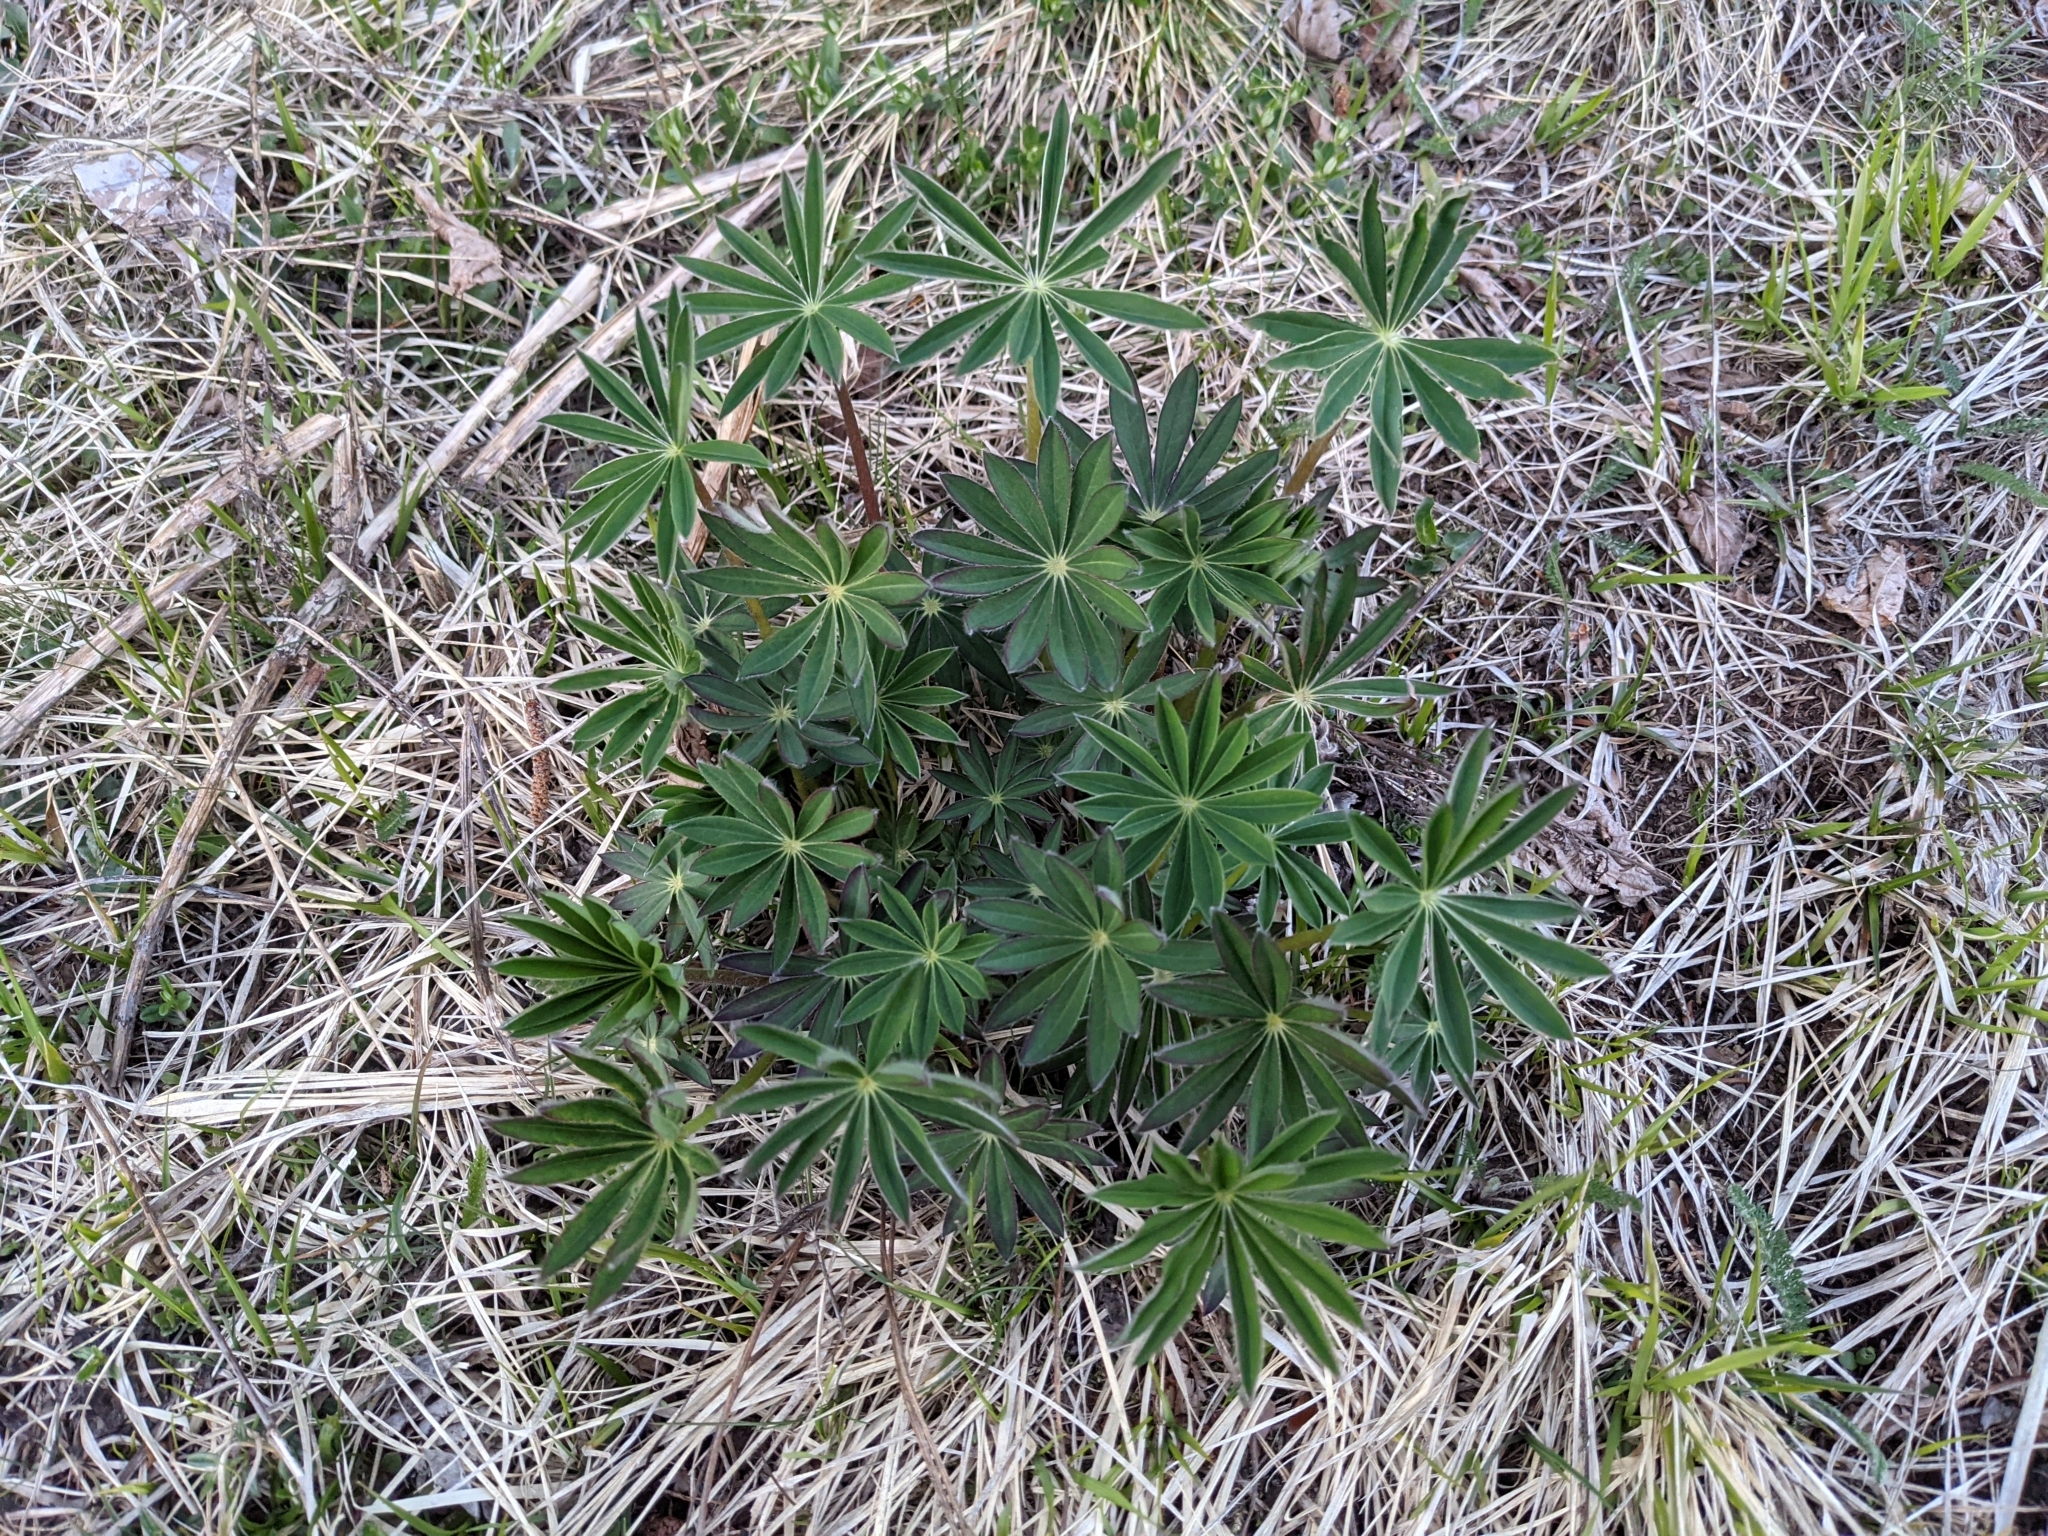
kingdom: Plantae
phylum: Tracheophyta
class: Magnoliopsida
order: Fabales
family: Fabaceae
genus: Lupinus
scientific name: Lupinus polyphyllus
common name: Garden lupin
